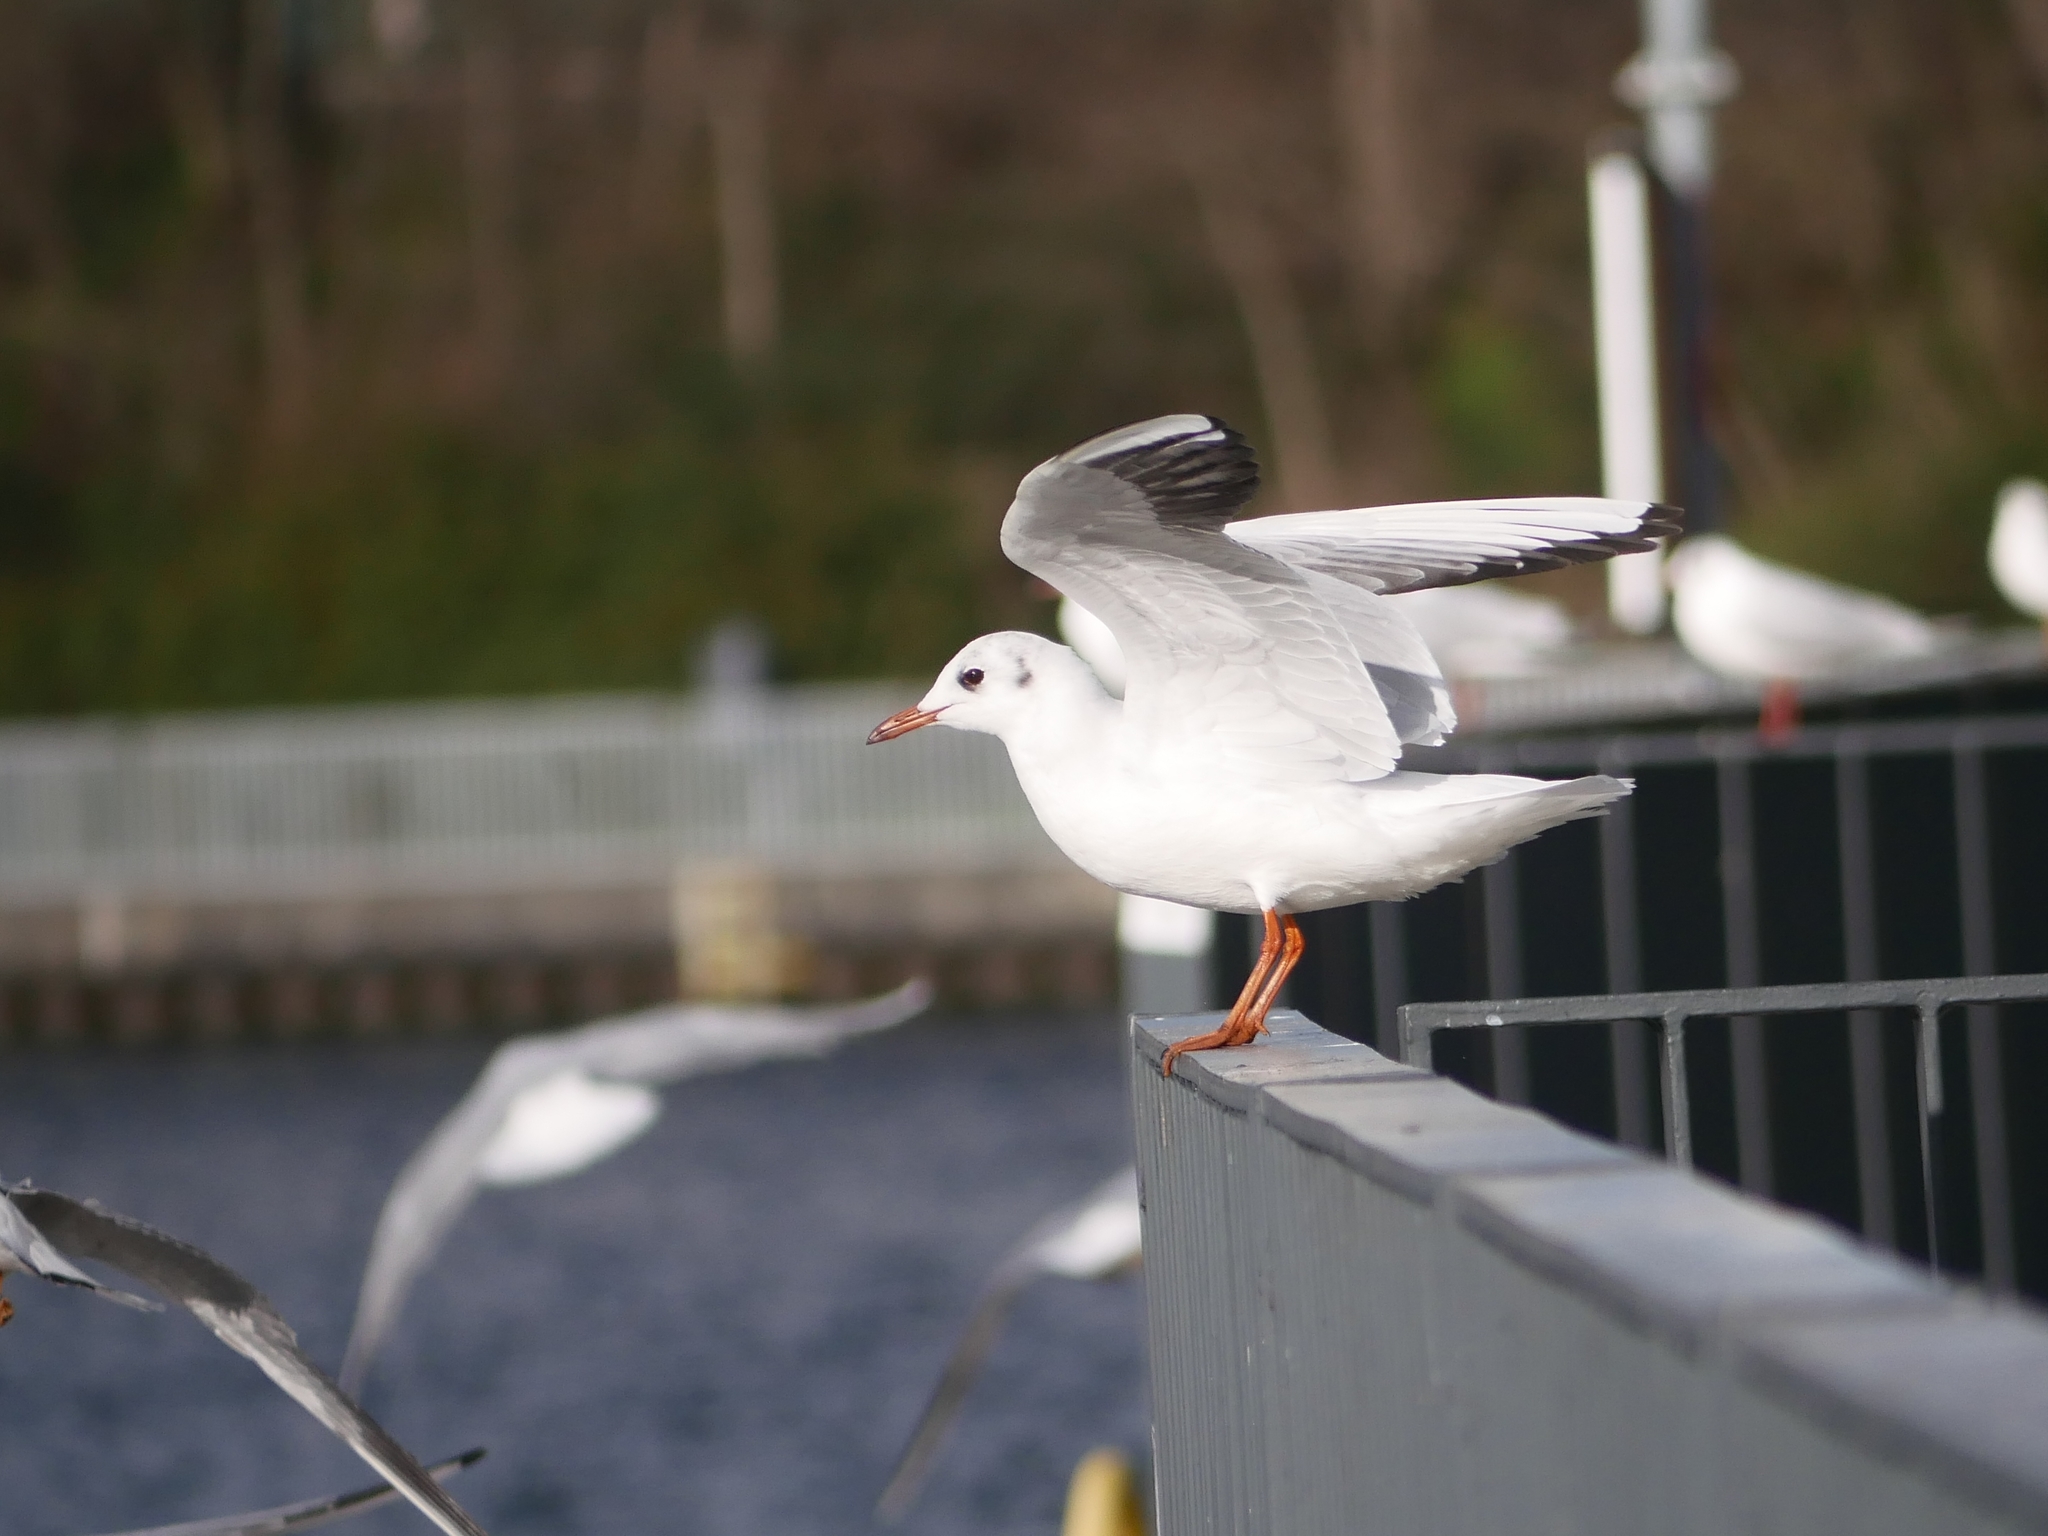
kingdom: Animalia
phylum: Chordata
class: Aves
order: Charadriiformes
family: Laridae
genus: Chroicocephalus
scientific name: Chroicocephalus ridibundus
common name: Black-headed gull
